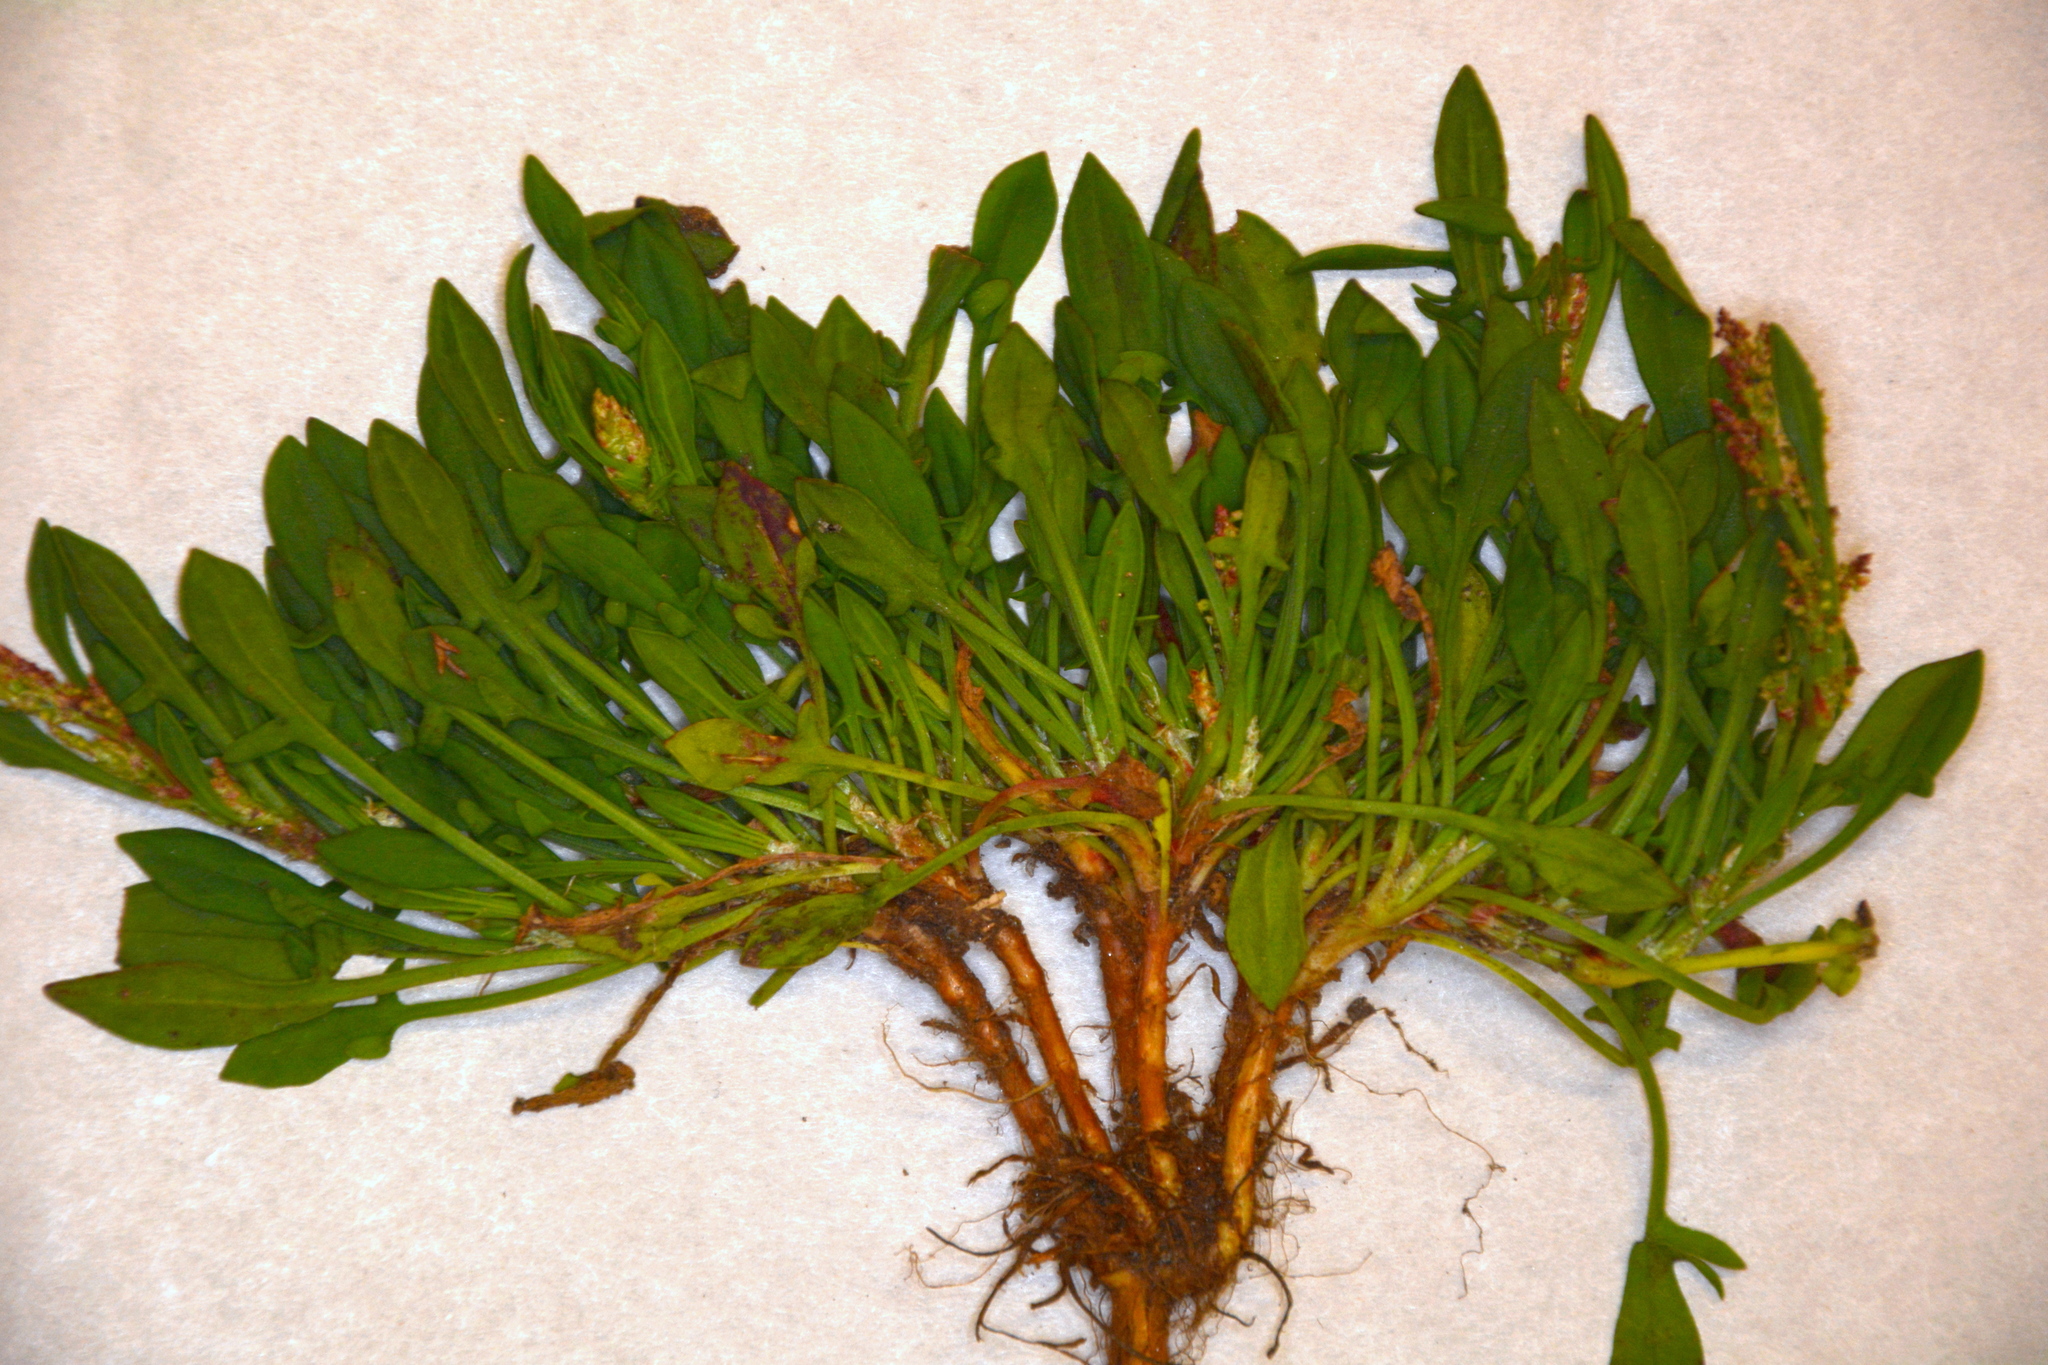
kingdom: Plantae
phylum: Tracheophyta
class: Magnoliopsida
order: Caryophyllales
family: Polygonaceae
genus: Rumex
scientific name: Rumex acetosella
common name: Common sheep sorrel
